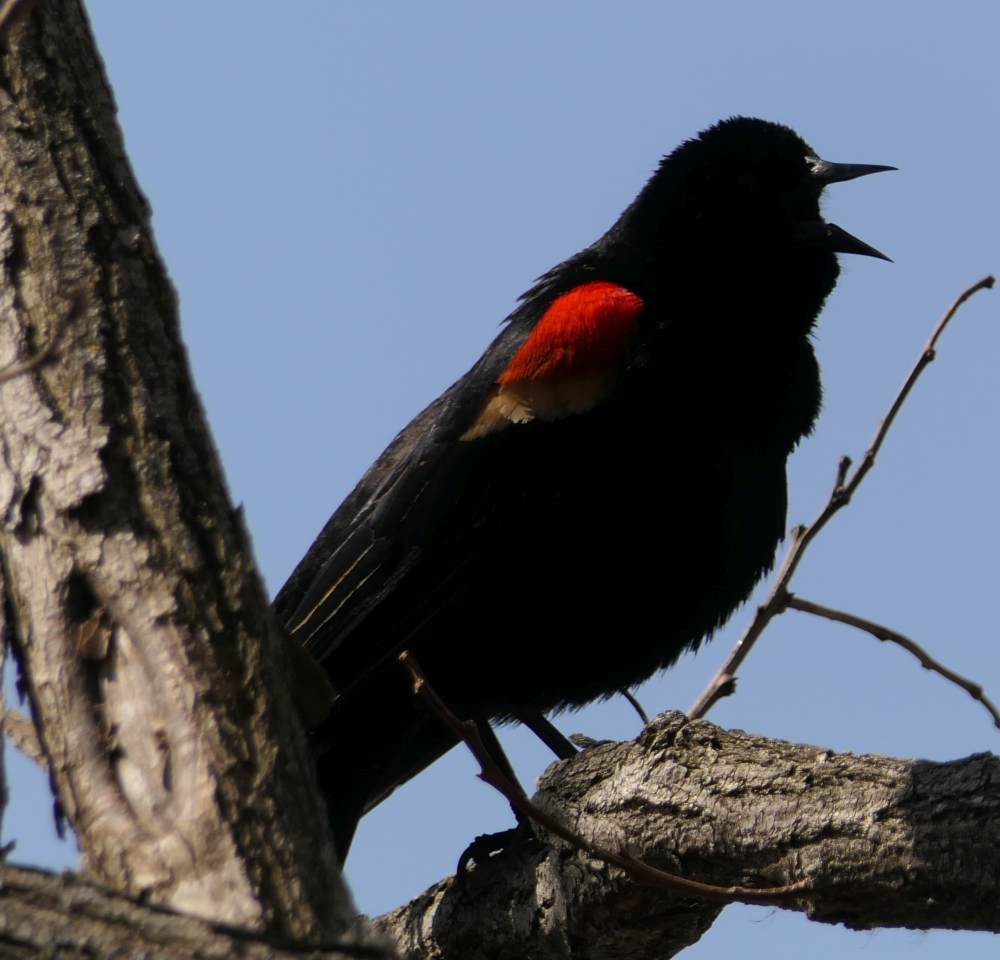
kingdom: Animalia
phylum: Chordata
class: Aves
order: Passeriformes
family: Icteridae
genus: Agelaius
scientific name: Agelaius phoeniceus
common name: Red-winged blackbird
